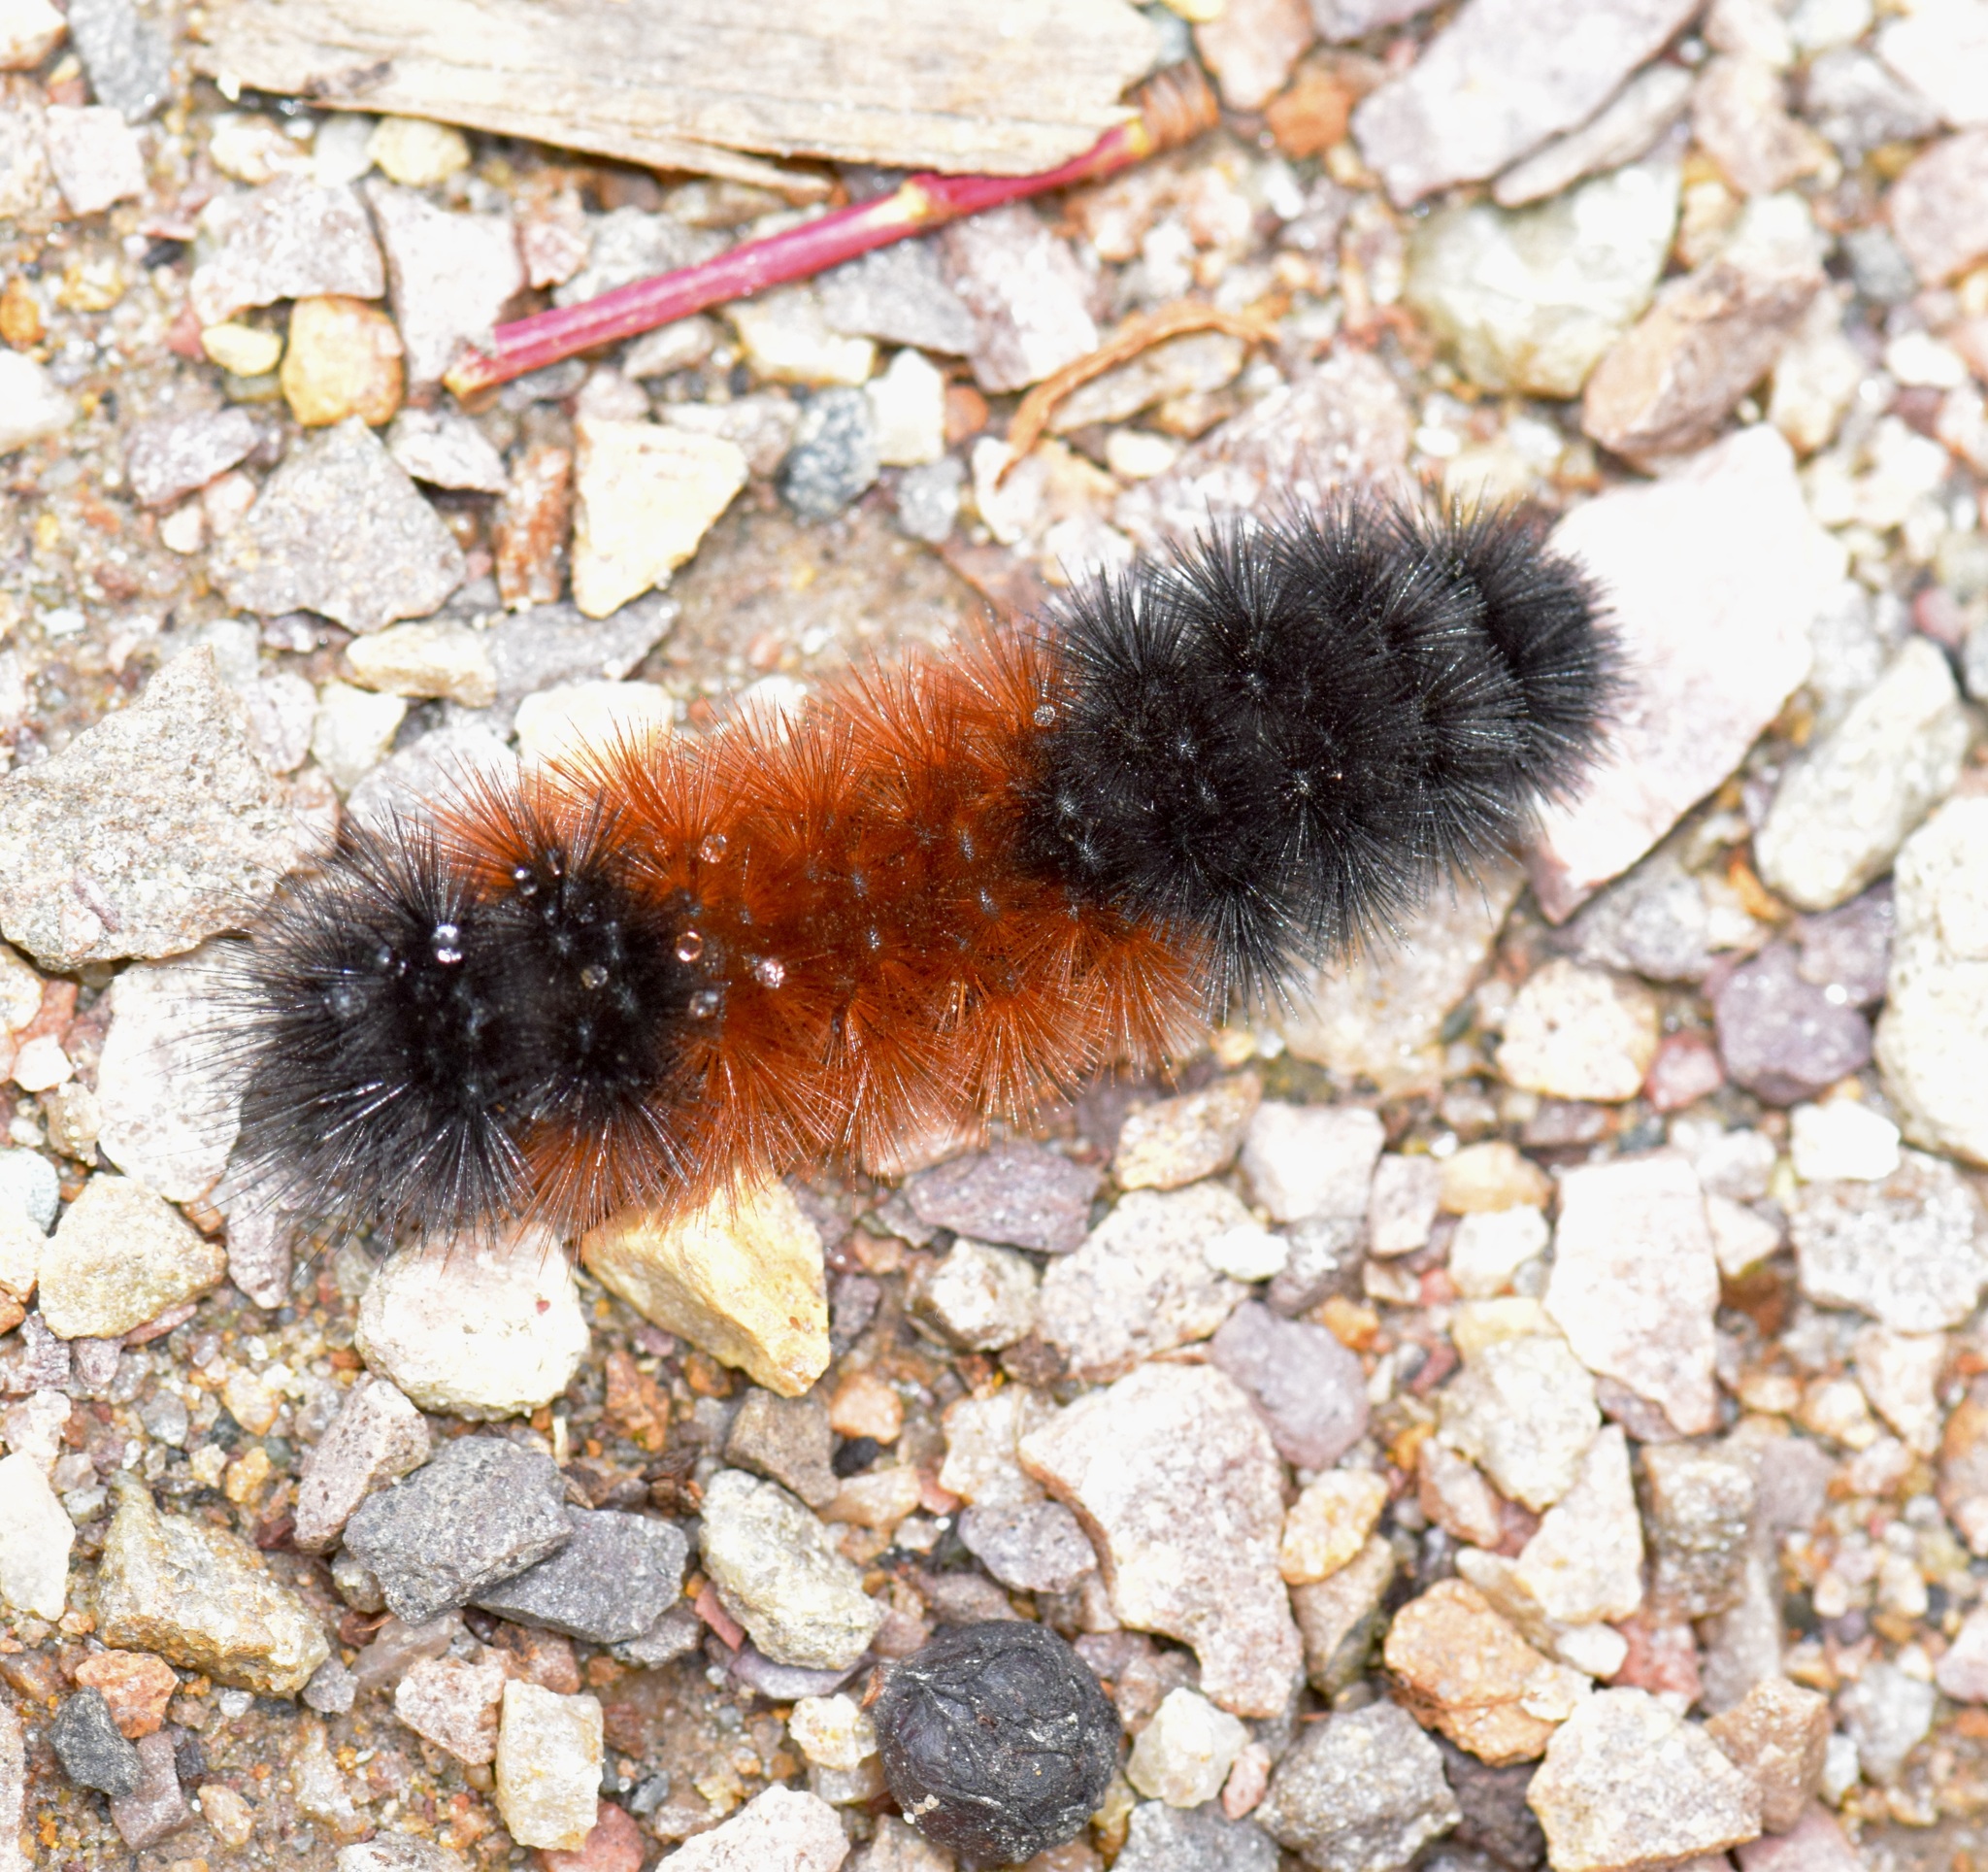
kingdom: Animalia
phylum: Arthropoda
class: Insecta
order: Lepidoptera
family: Erebidae
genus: Pyrrharctia
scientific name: Pyrrharctia isabella
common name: Isabella tiger moth
